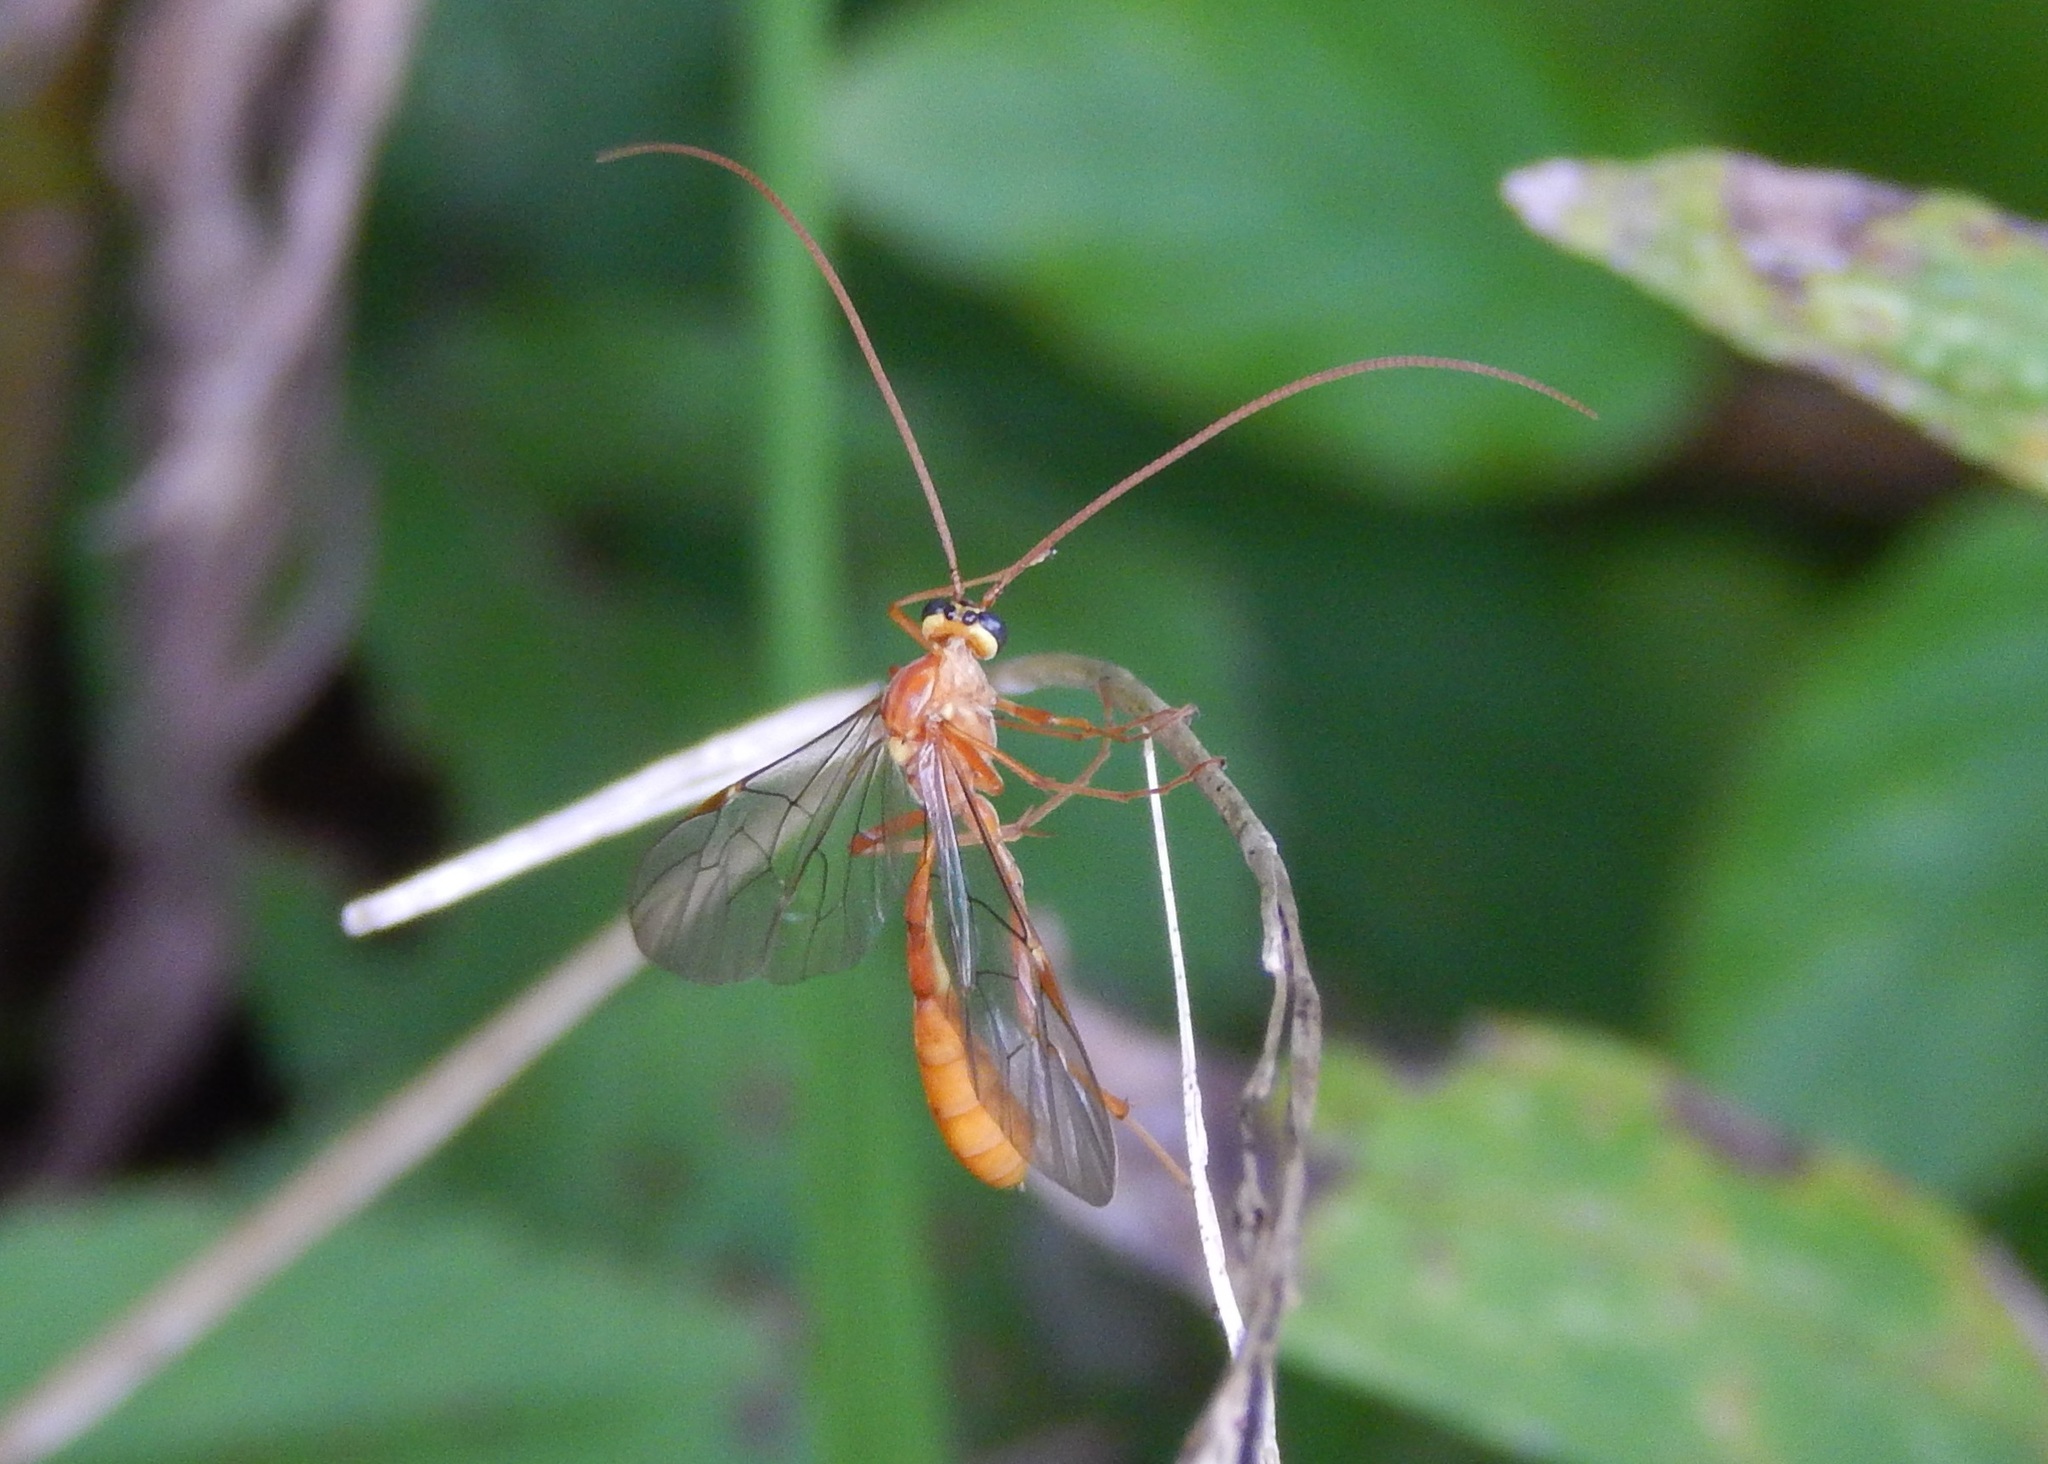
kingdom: Animalia
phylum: Arthropoda
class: Insecta
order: Hymenoptera
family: Ichneumonidae
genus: Ophion
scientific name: Ophion
